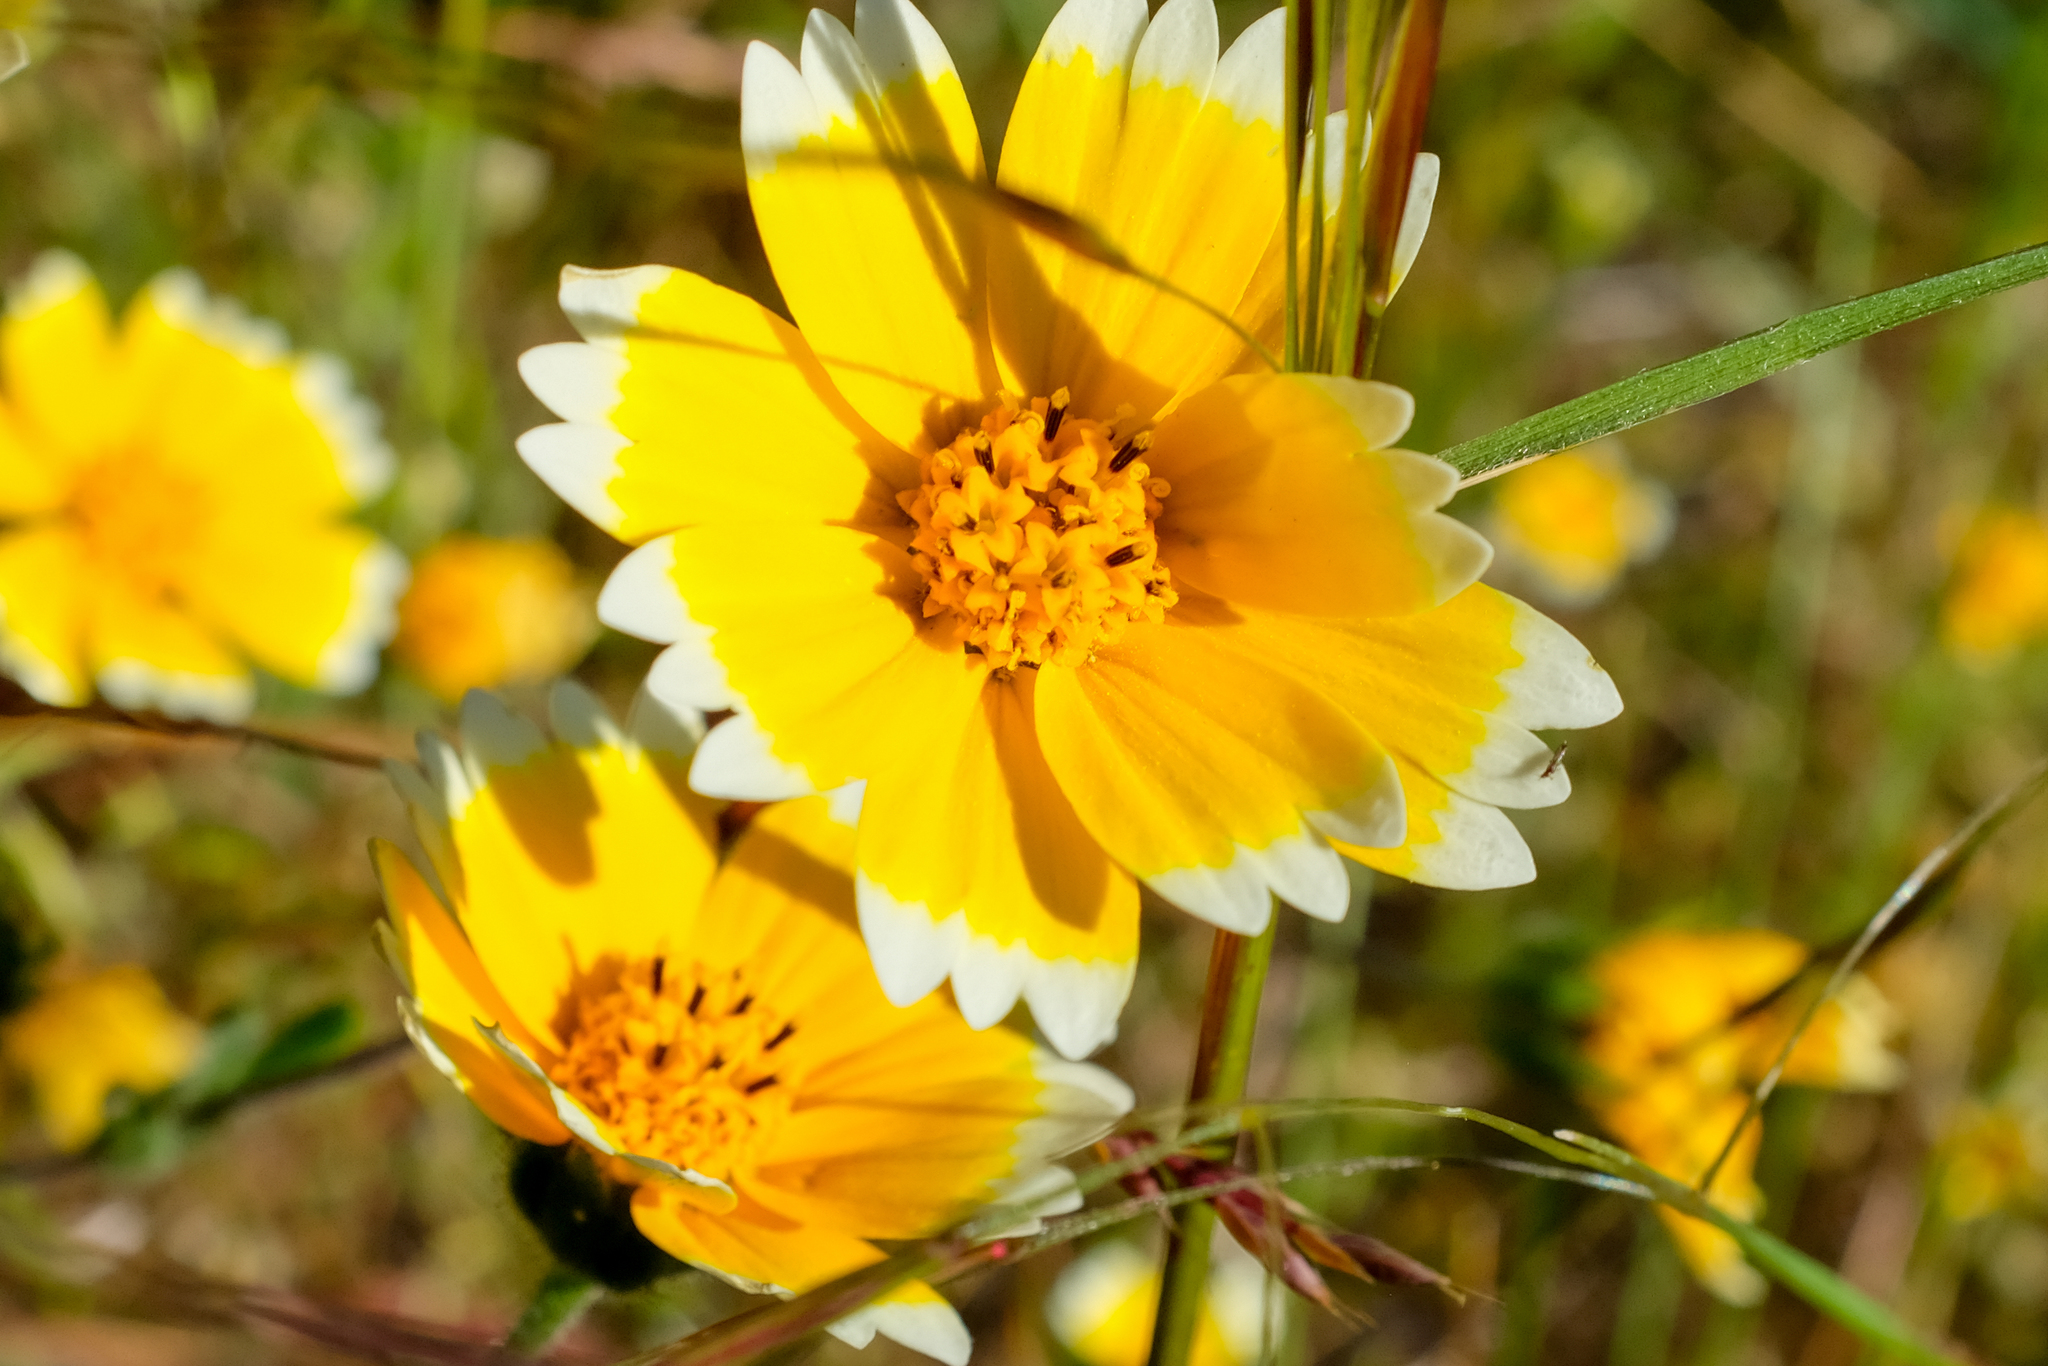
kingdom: Plantae
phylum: Tracheophyta
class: Magnoliopsida
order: Asterales
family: Asteraceae
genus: Layia
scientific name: Layia platyglossa
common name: Tidy-tips
